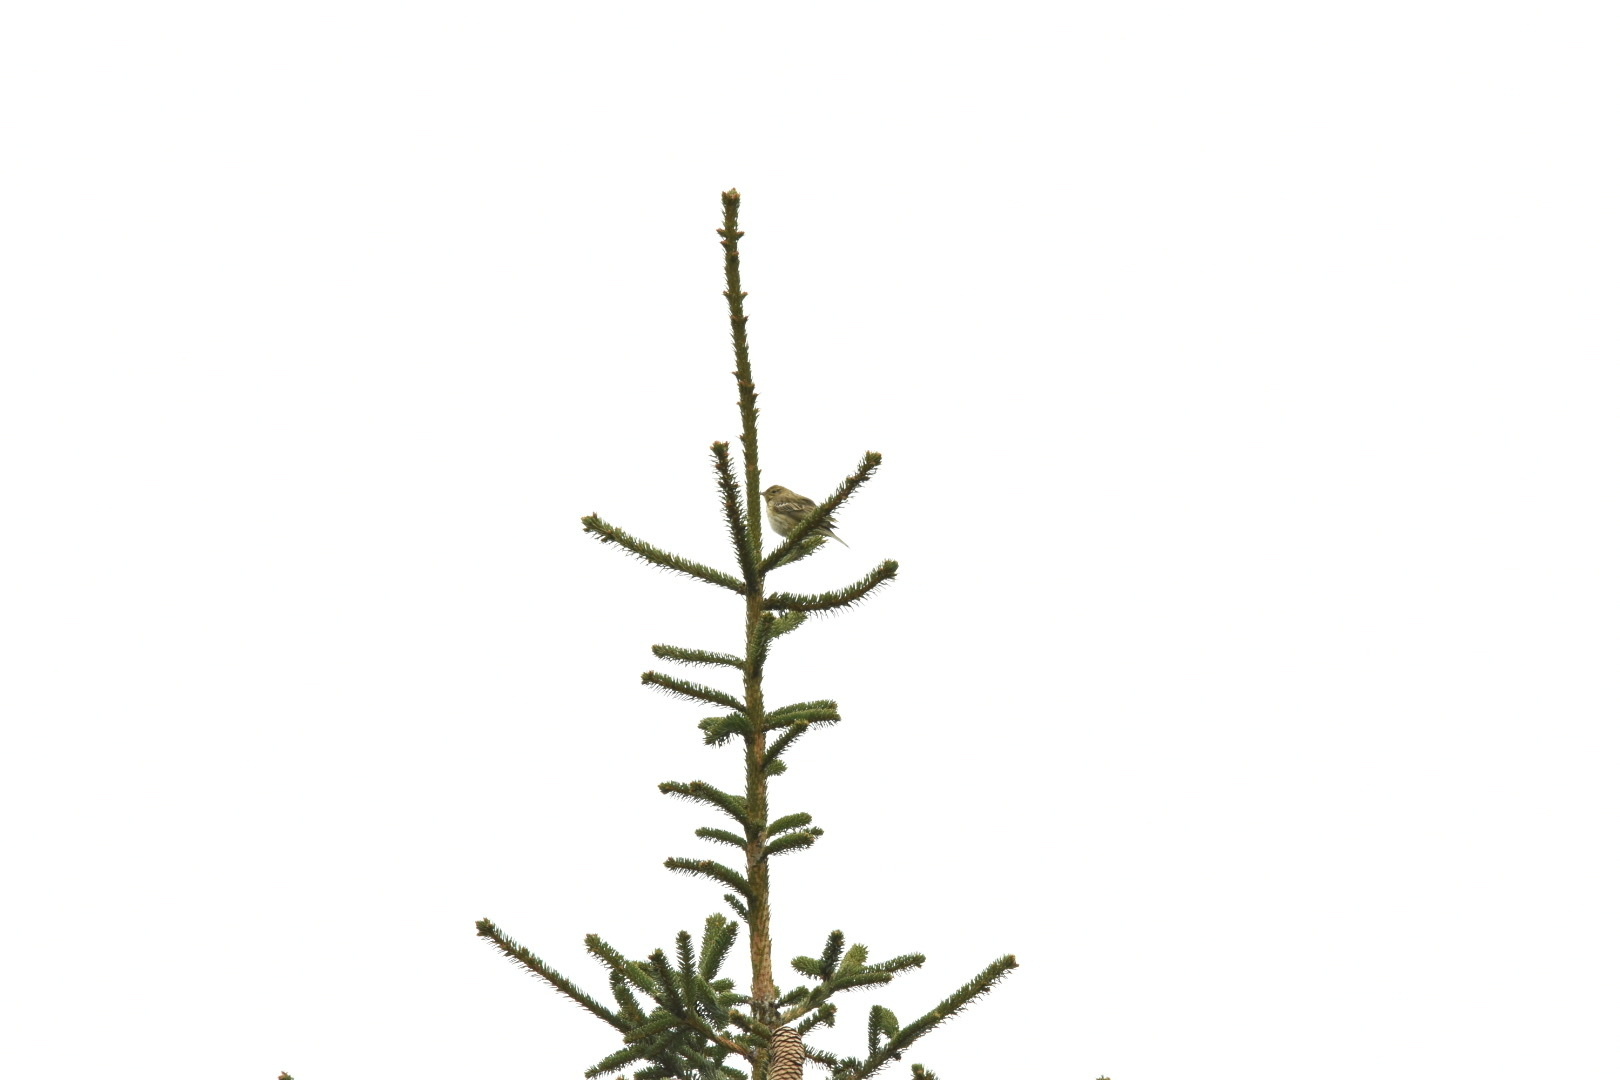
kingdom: Animalia
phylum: Chordata
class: Aves
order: Passeriformes
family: Motacillidae
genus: Anthus
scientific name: Anthus trivialis
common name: Tree pipit
